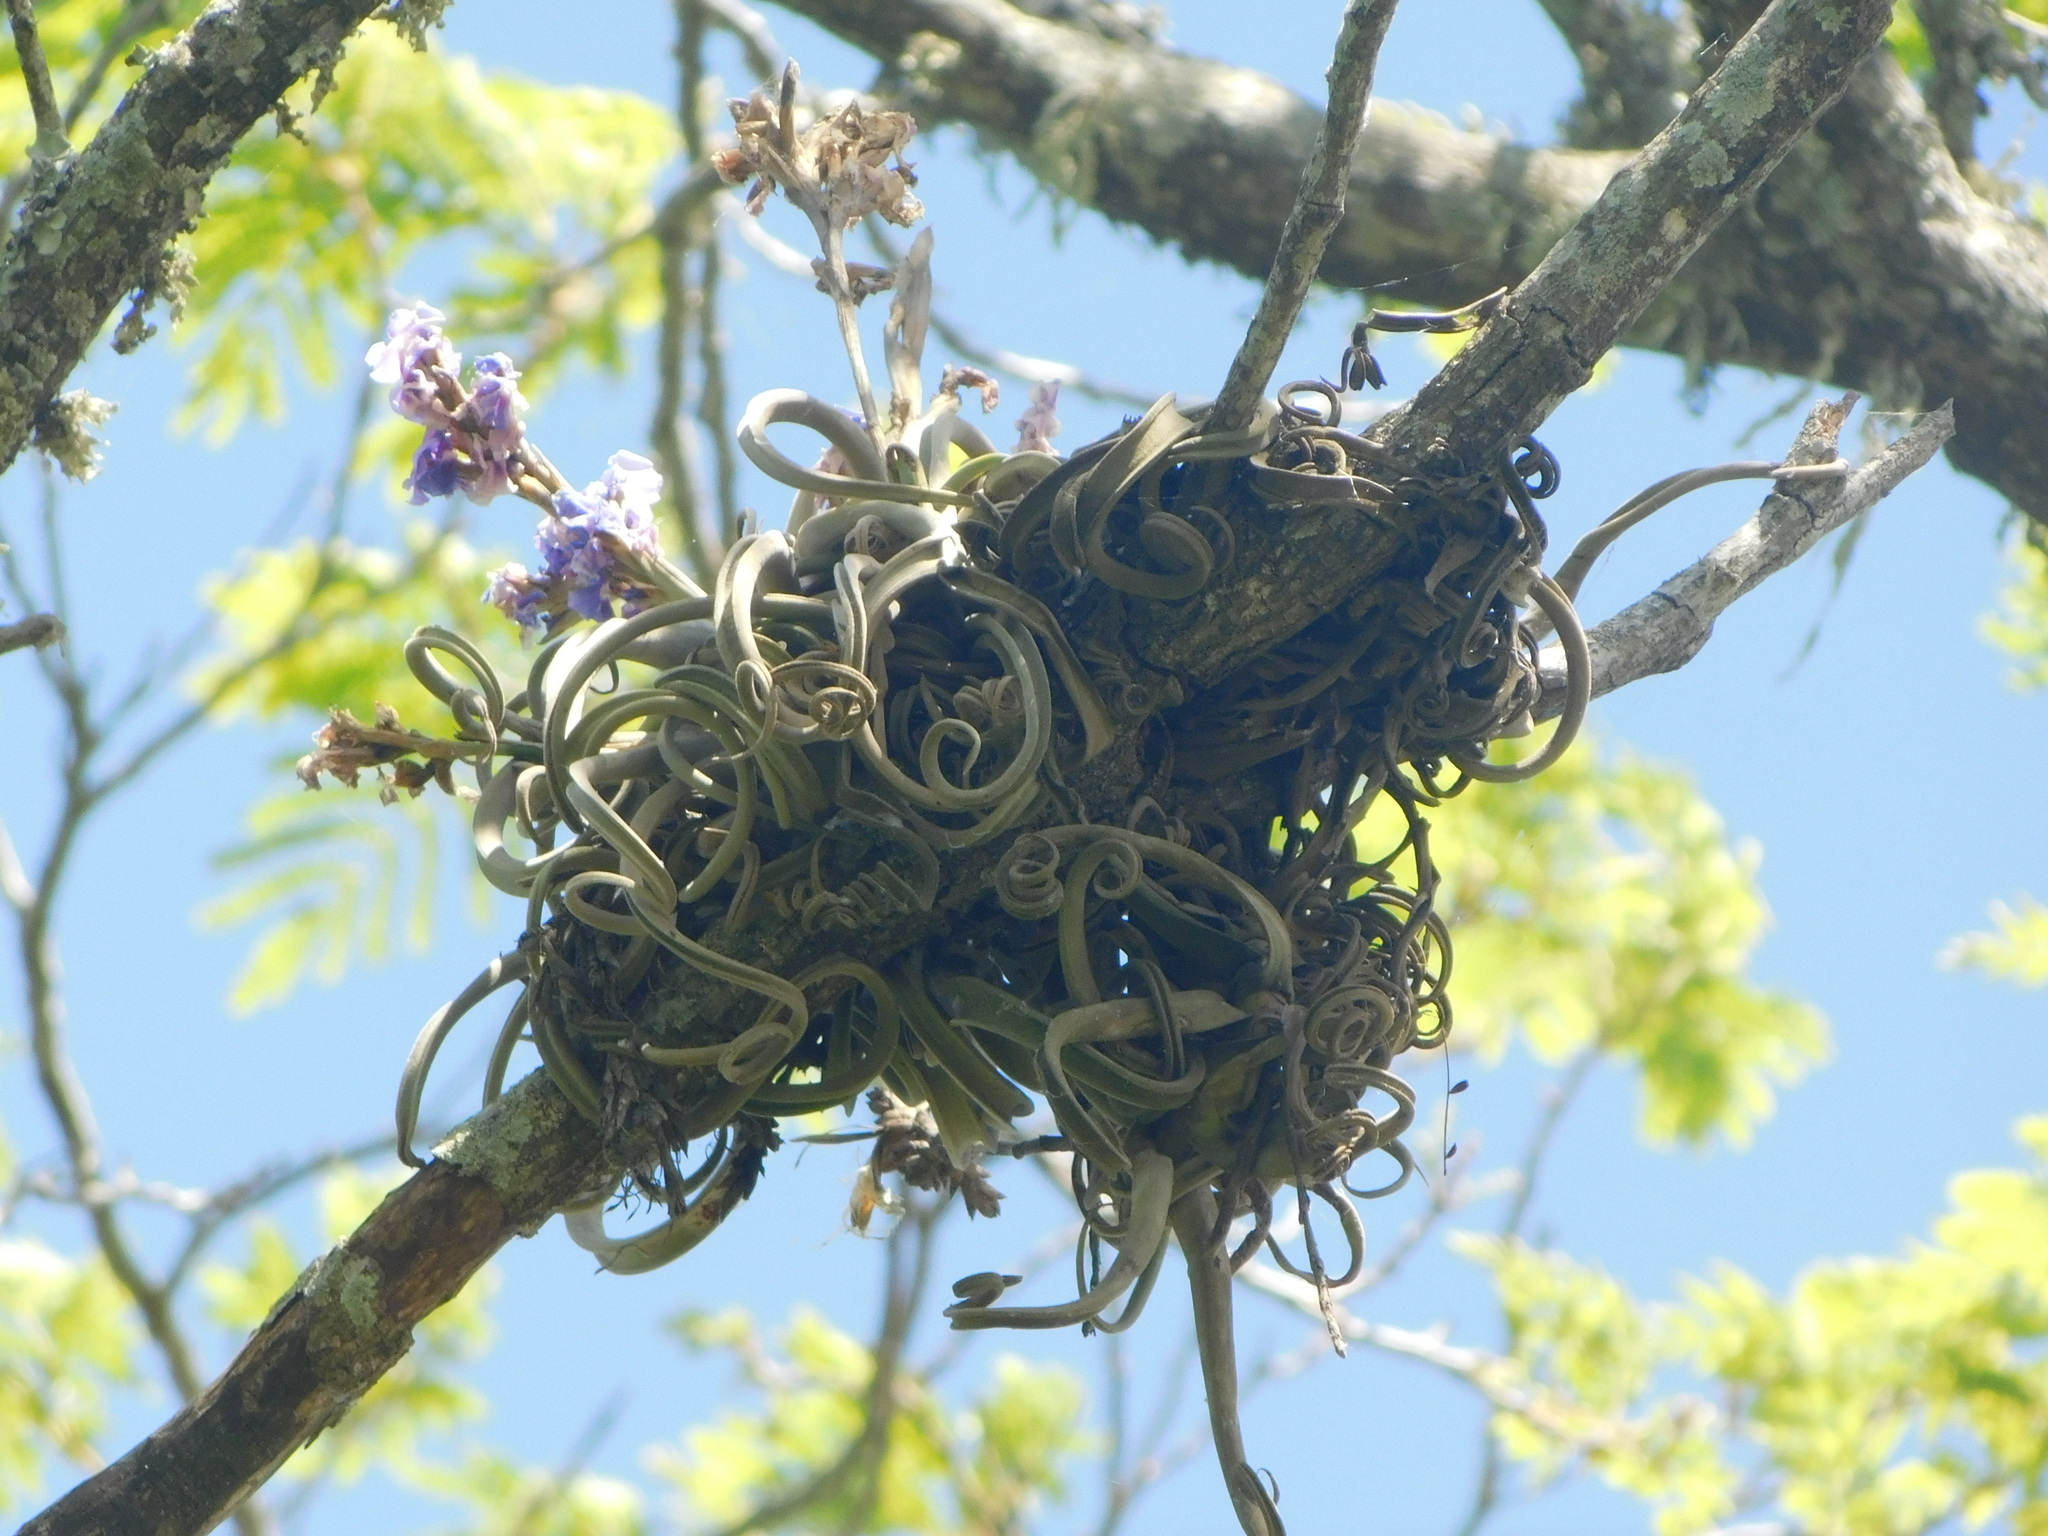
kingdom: Plantae
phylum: Tracheophyta
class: Liliopsida
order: Poales
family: Bromeliaceae
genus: Tillandsia
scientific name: Tillandsia duratii
